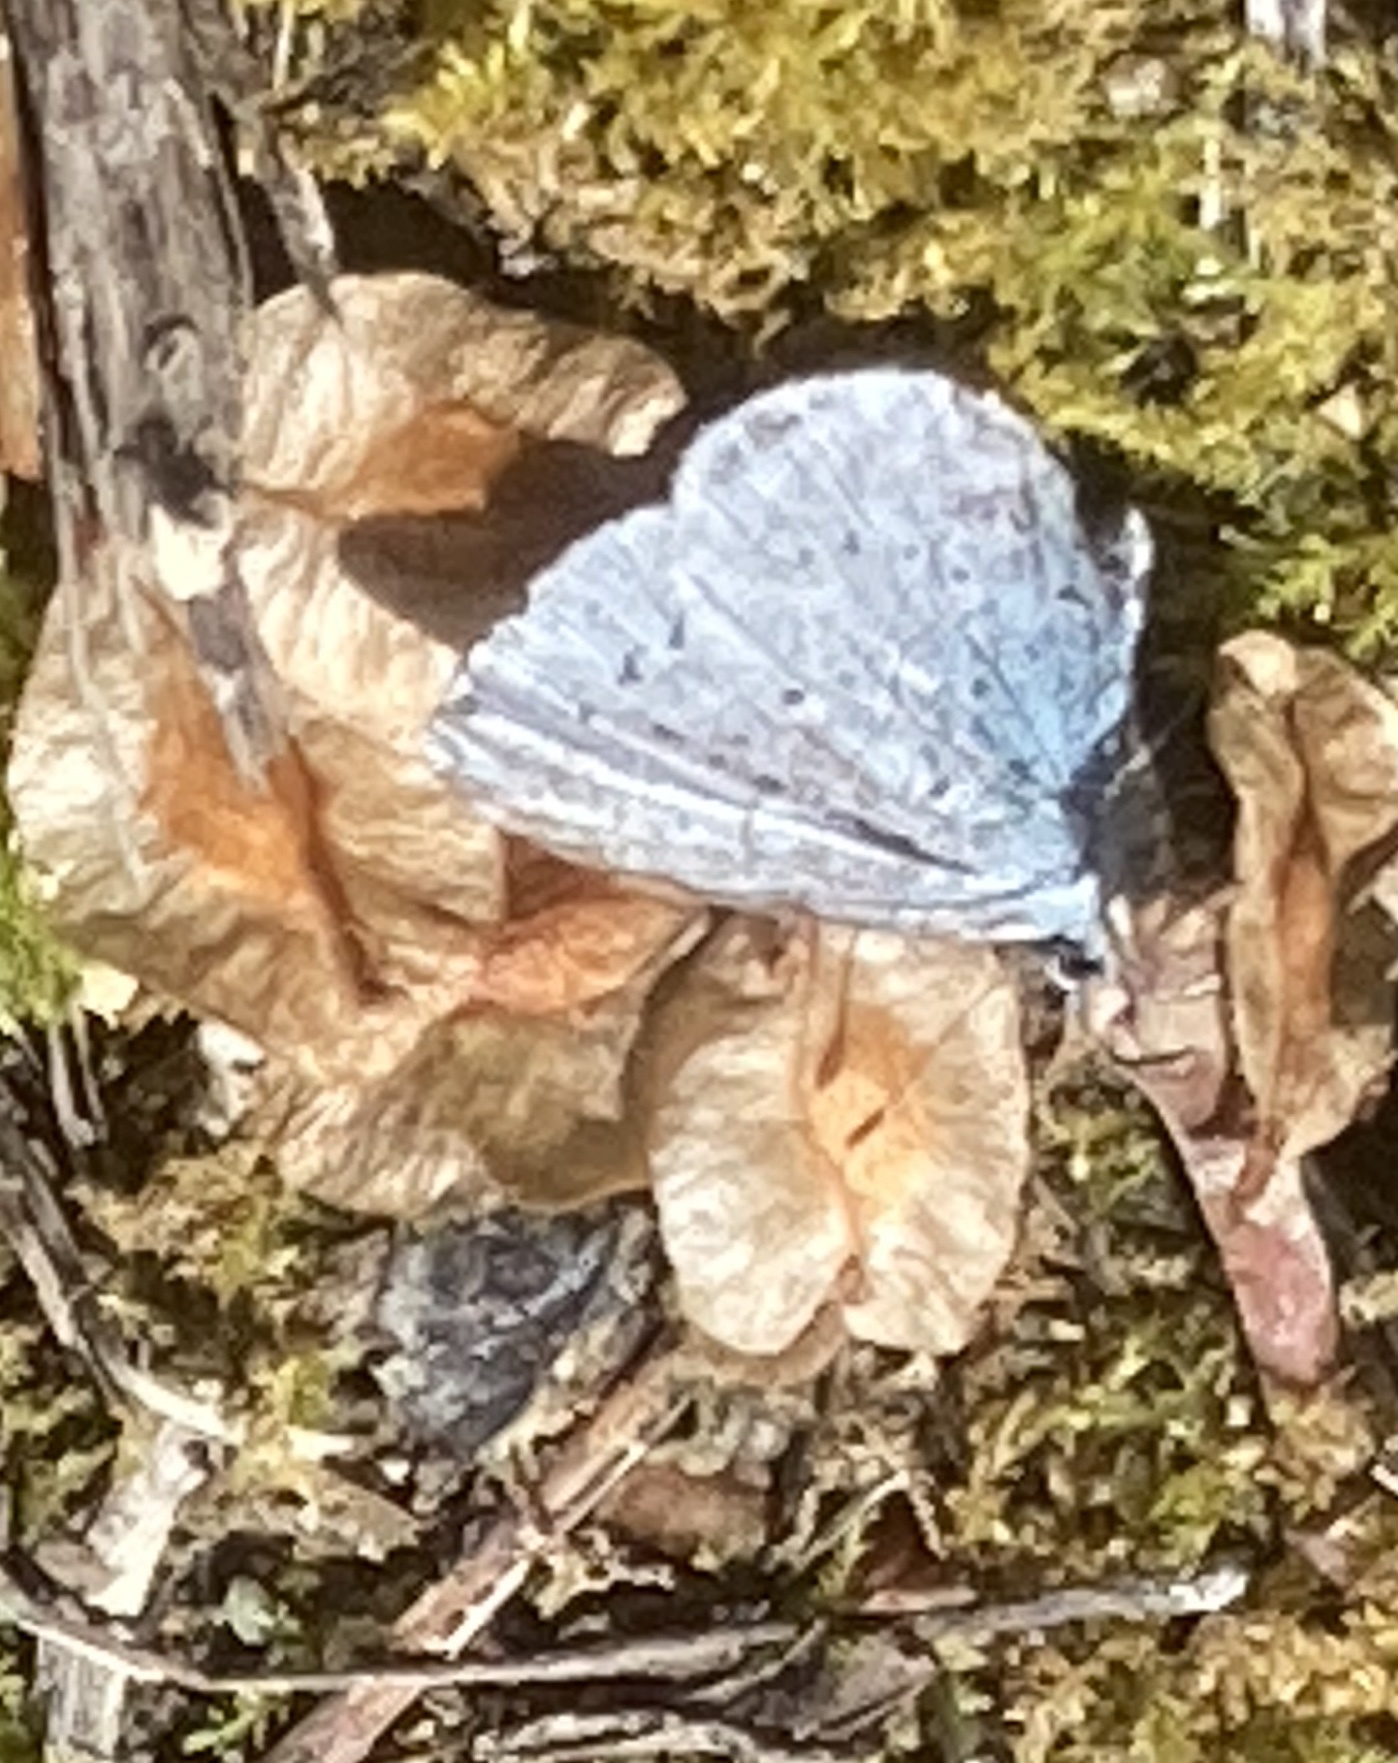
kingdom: Animalia
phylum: Arthropoda
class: Insecta
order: Lepidoptera
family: Lycaenidae
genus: Celastrina
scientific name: Celastrina argiolus
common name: Holly blue
